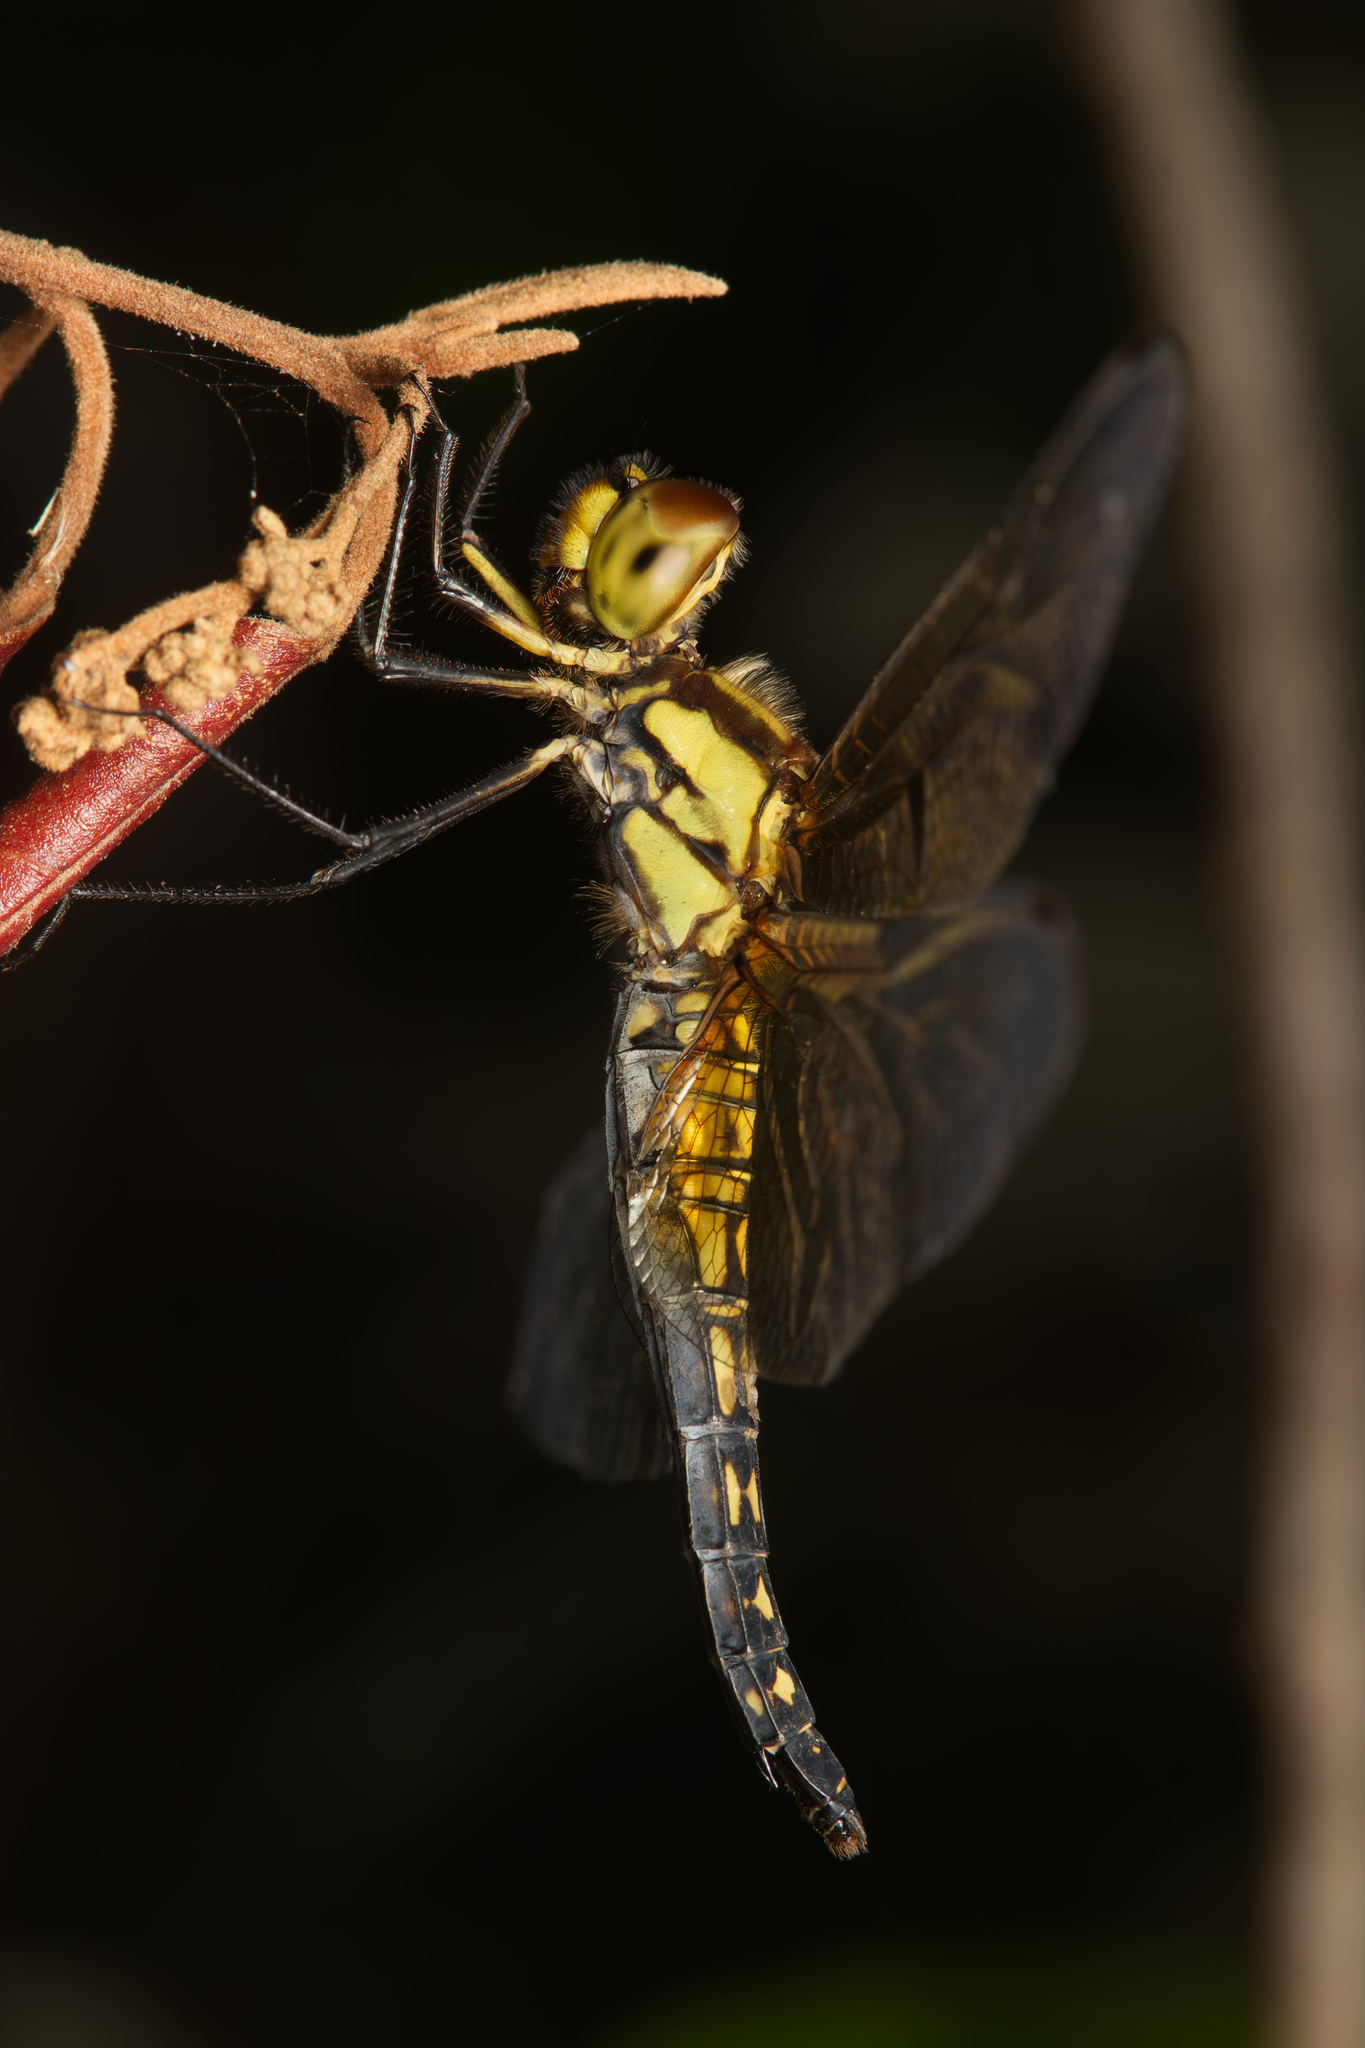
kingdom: Animalia
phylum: Arthropoda
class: Insecta
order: Odonata
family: Libellulidae
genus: Hydrobasileus
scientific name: Hydrobasileus brevistylus
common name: Water prince
